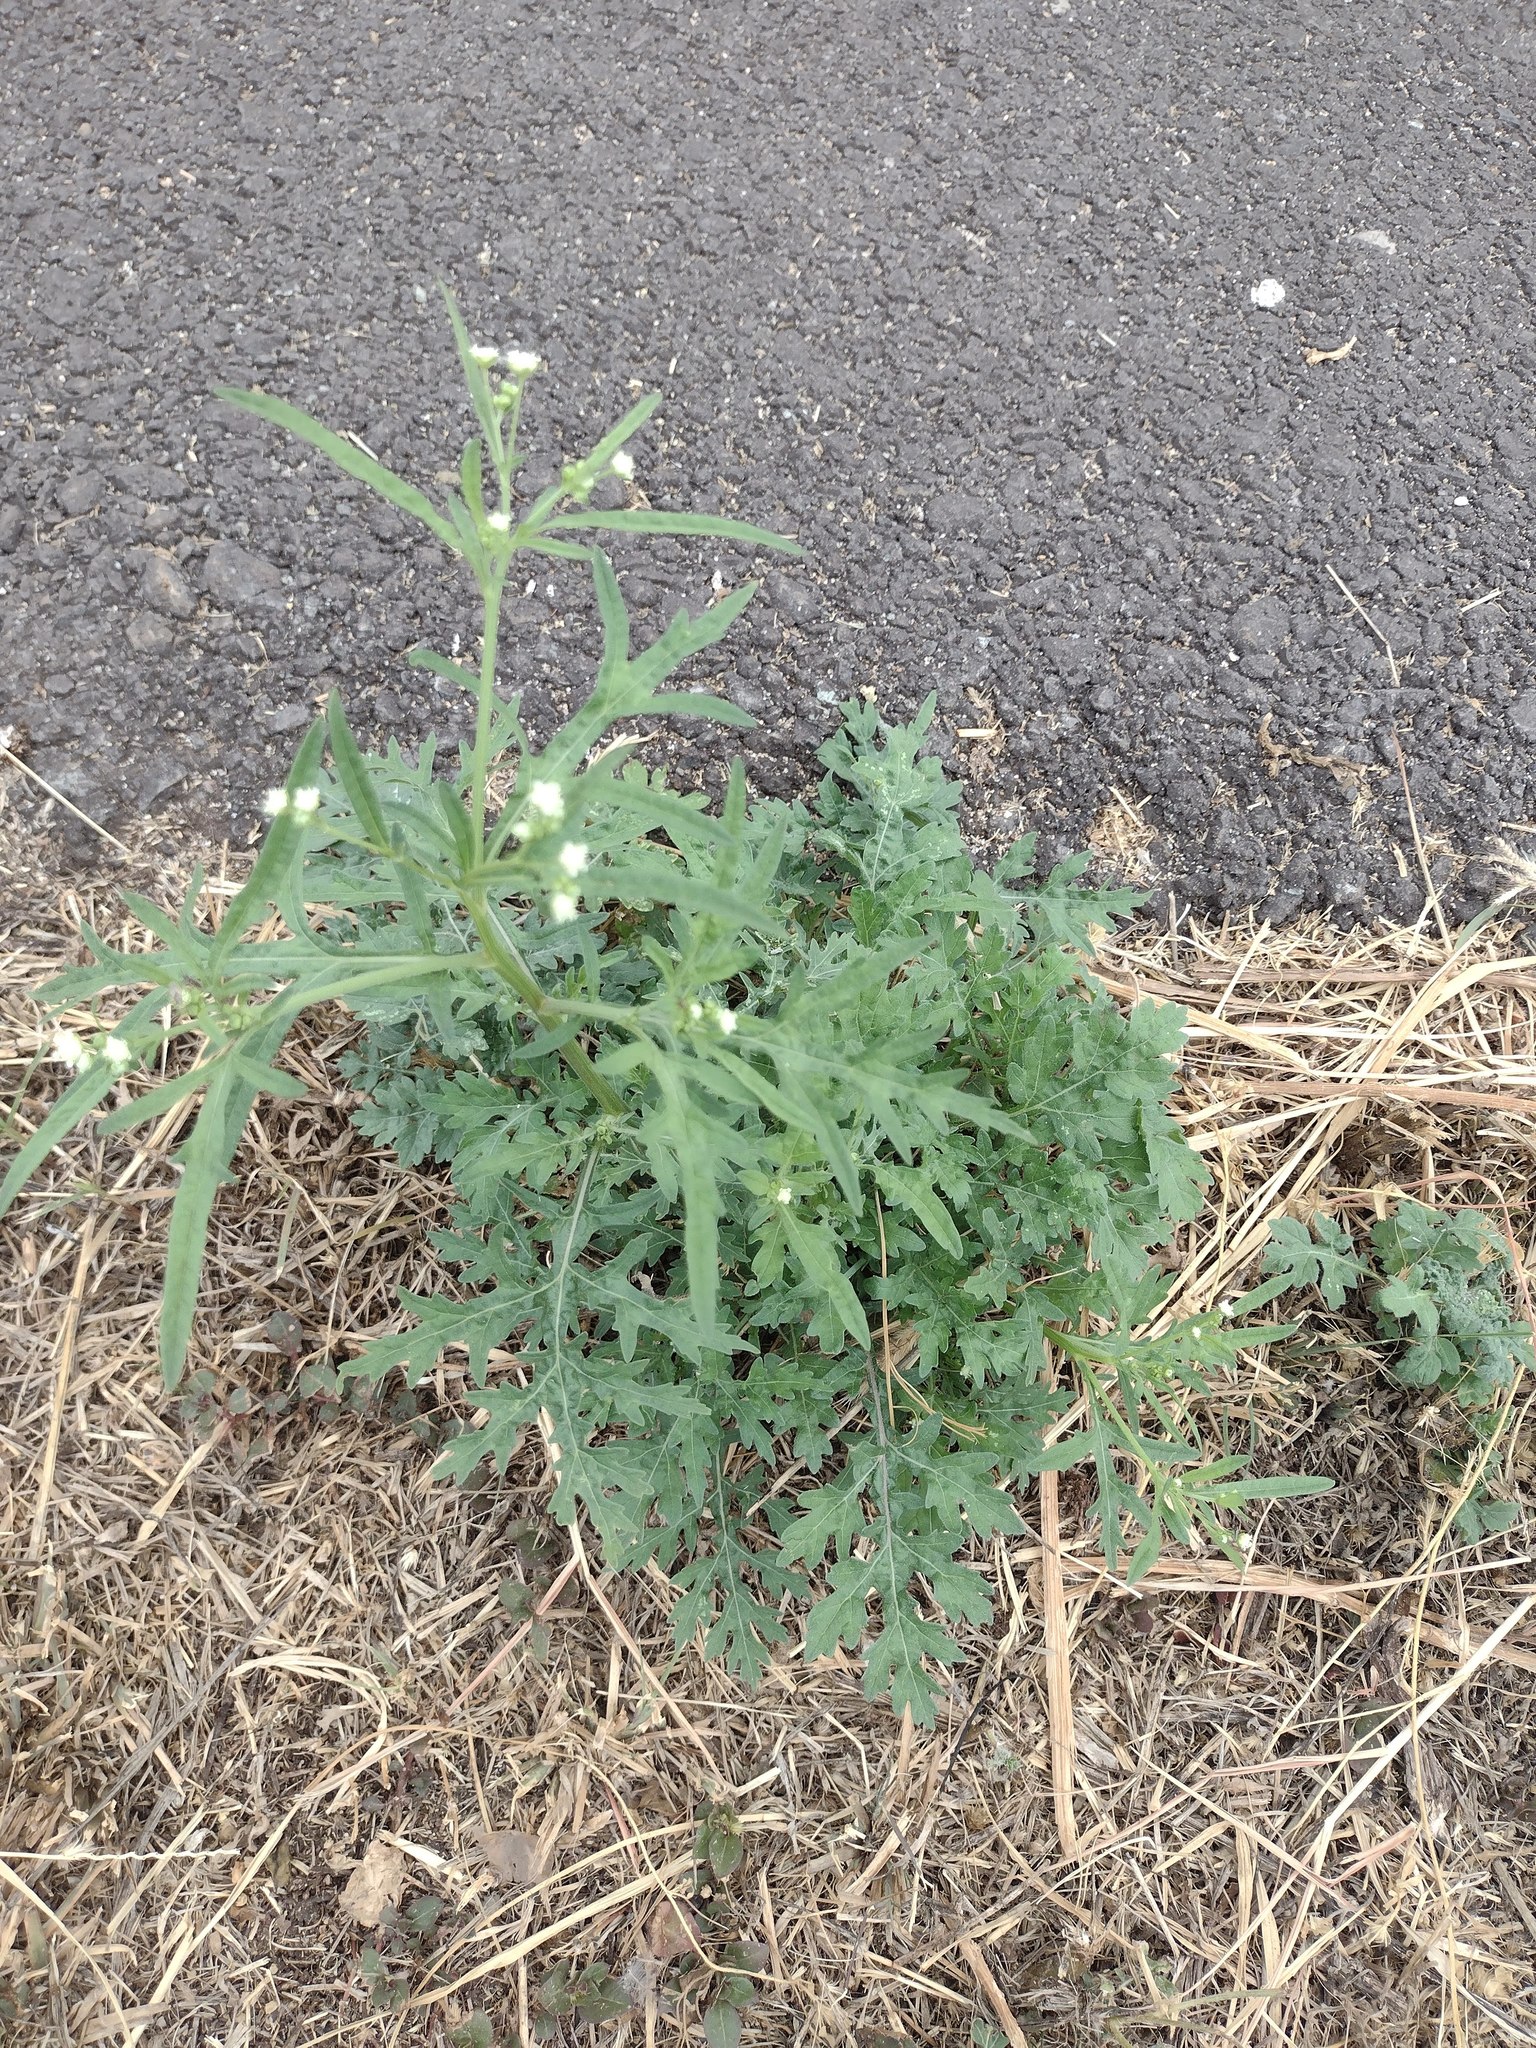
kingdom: Plantae
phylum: Tracheophyta
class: Magnoliopsida
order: Asterales
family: Asteraceae
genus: Parthenium
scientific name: Parthenium hysterophorus
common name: Santa maria feverfew
